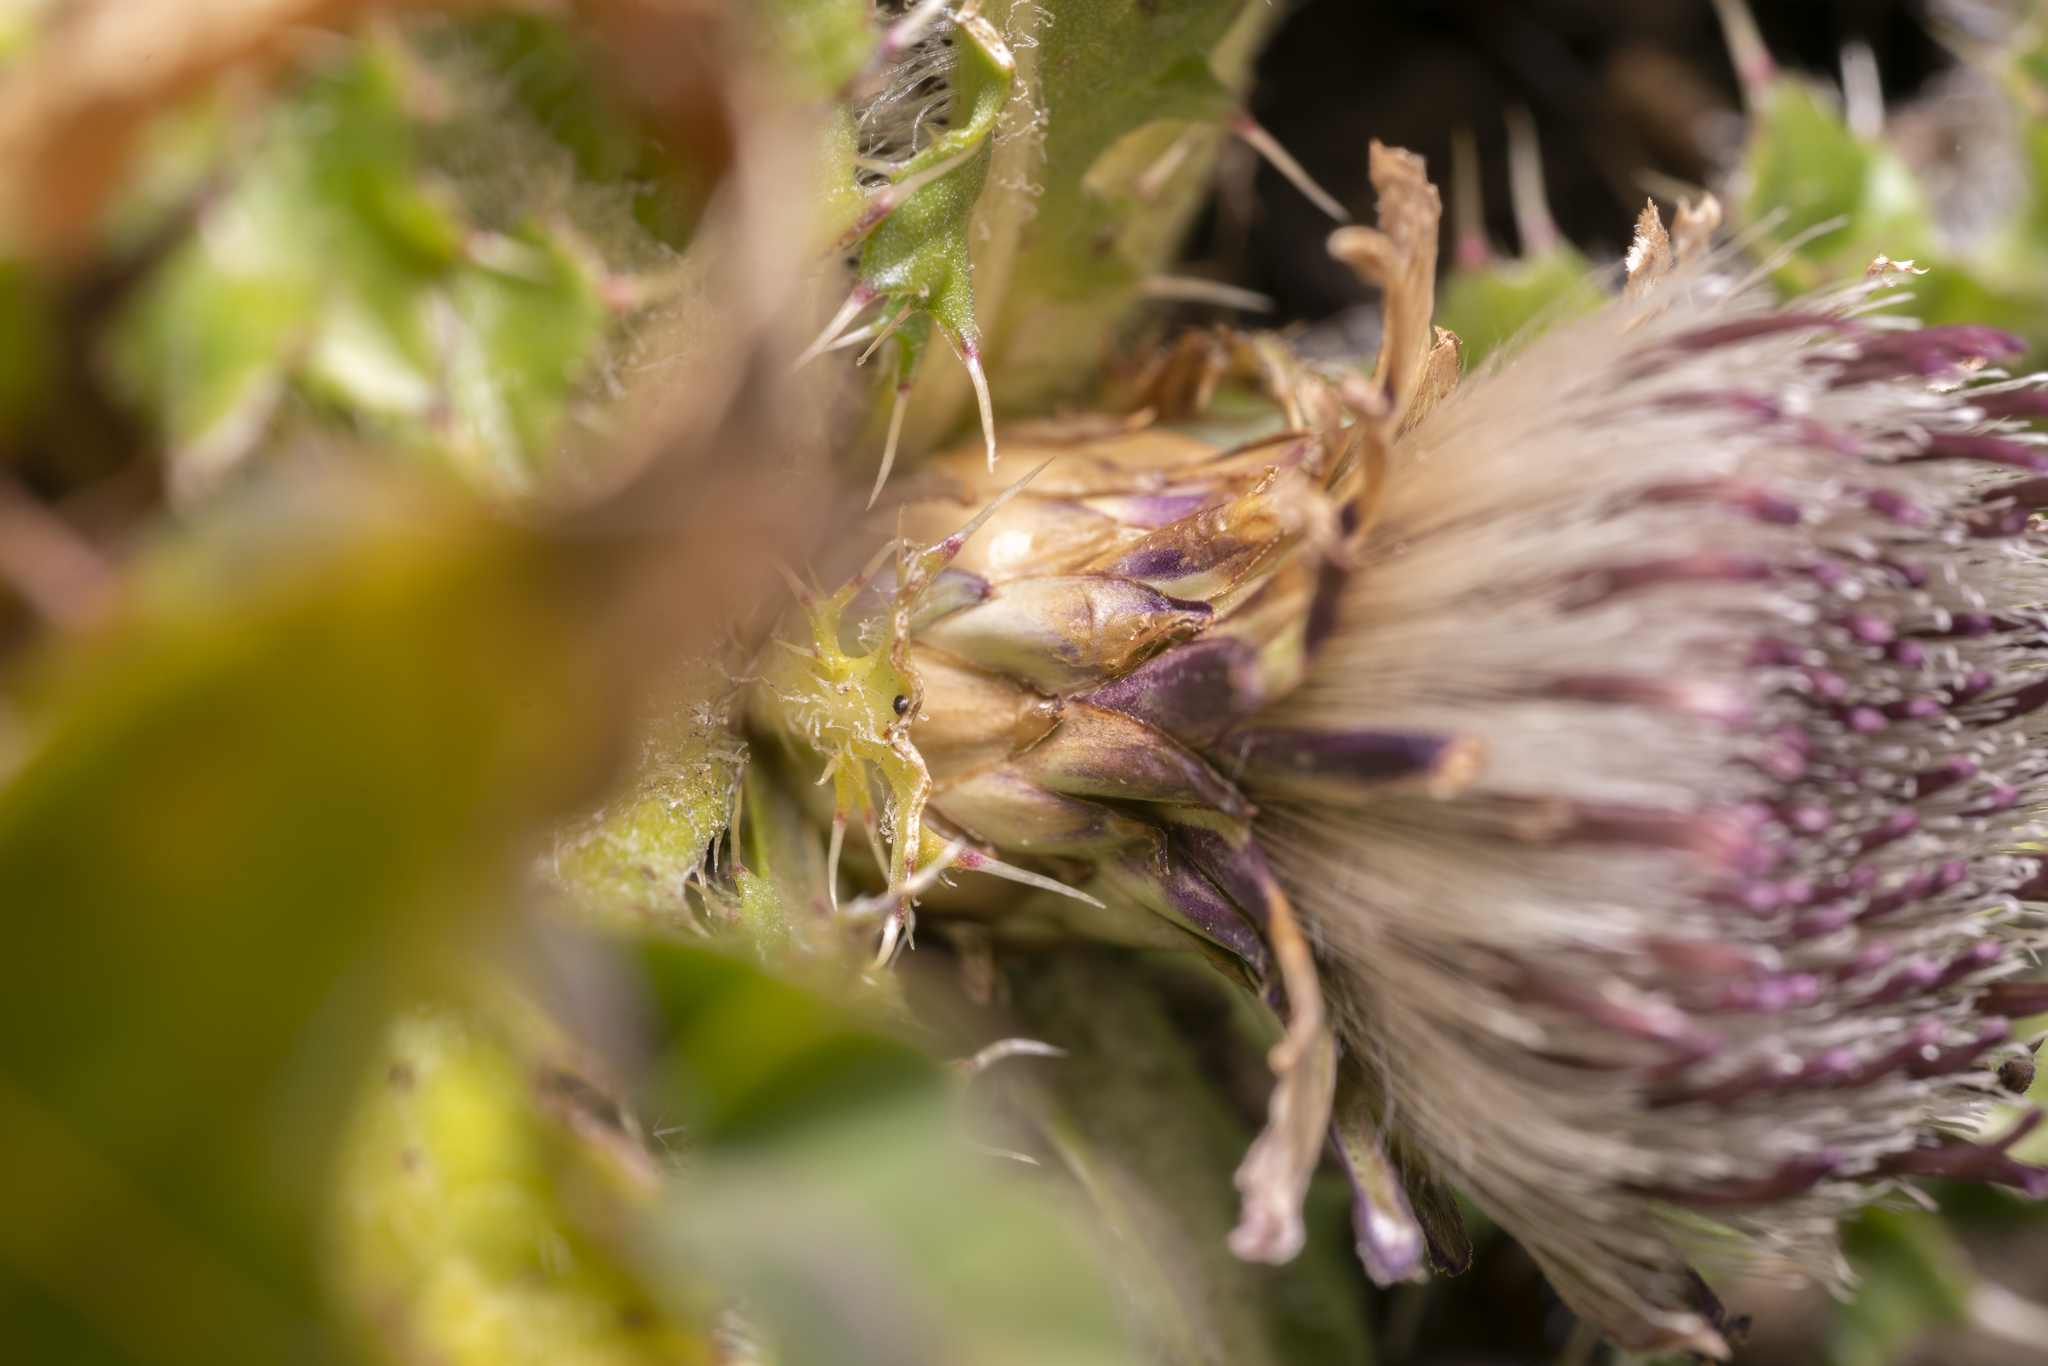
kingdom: Plantae
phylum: Tracheophyta
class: Magnoliopsida
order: Asterales
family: Asteraceae
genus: Cirsium
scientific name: Cirsium acaulon
